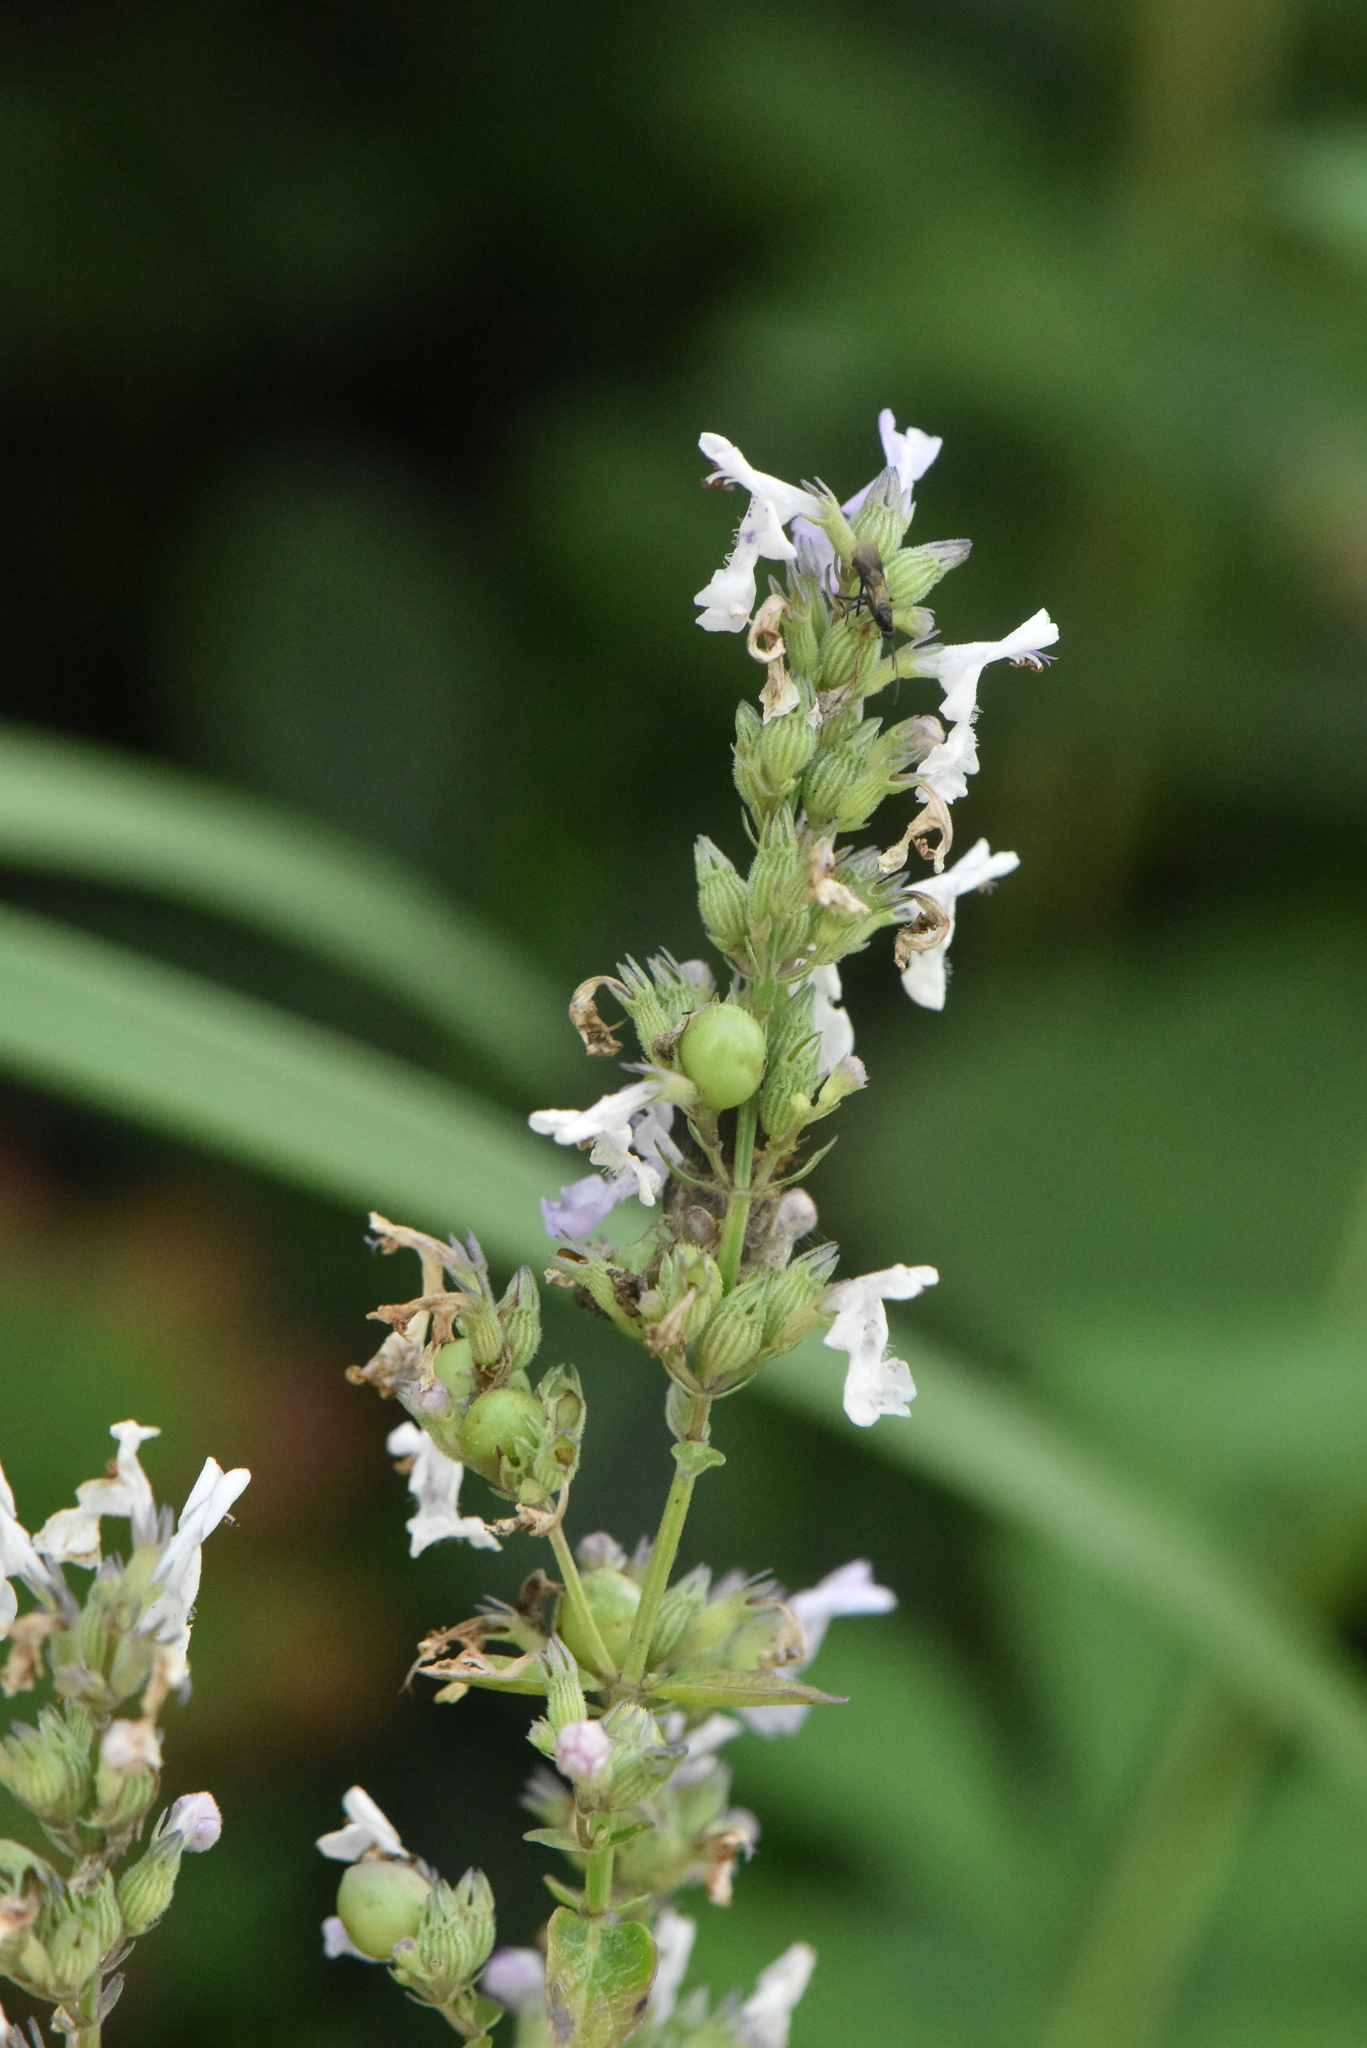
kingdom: Plantae
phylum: Tracheophyta
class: Magnoliopsida
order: Lamiales
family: Lamiaceae
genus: Nepeta
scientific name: Nepeta nuda
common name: Hairless catmint
